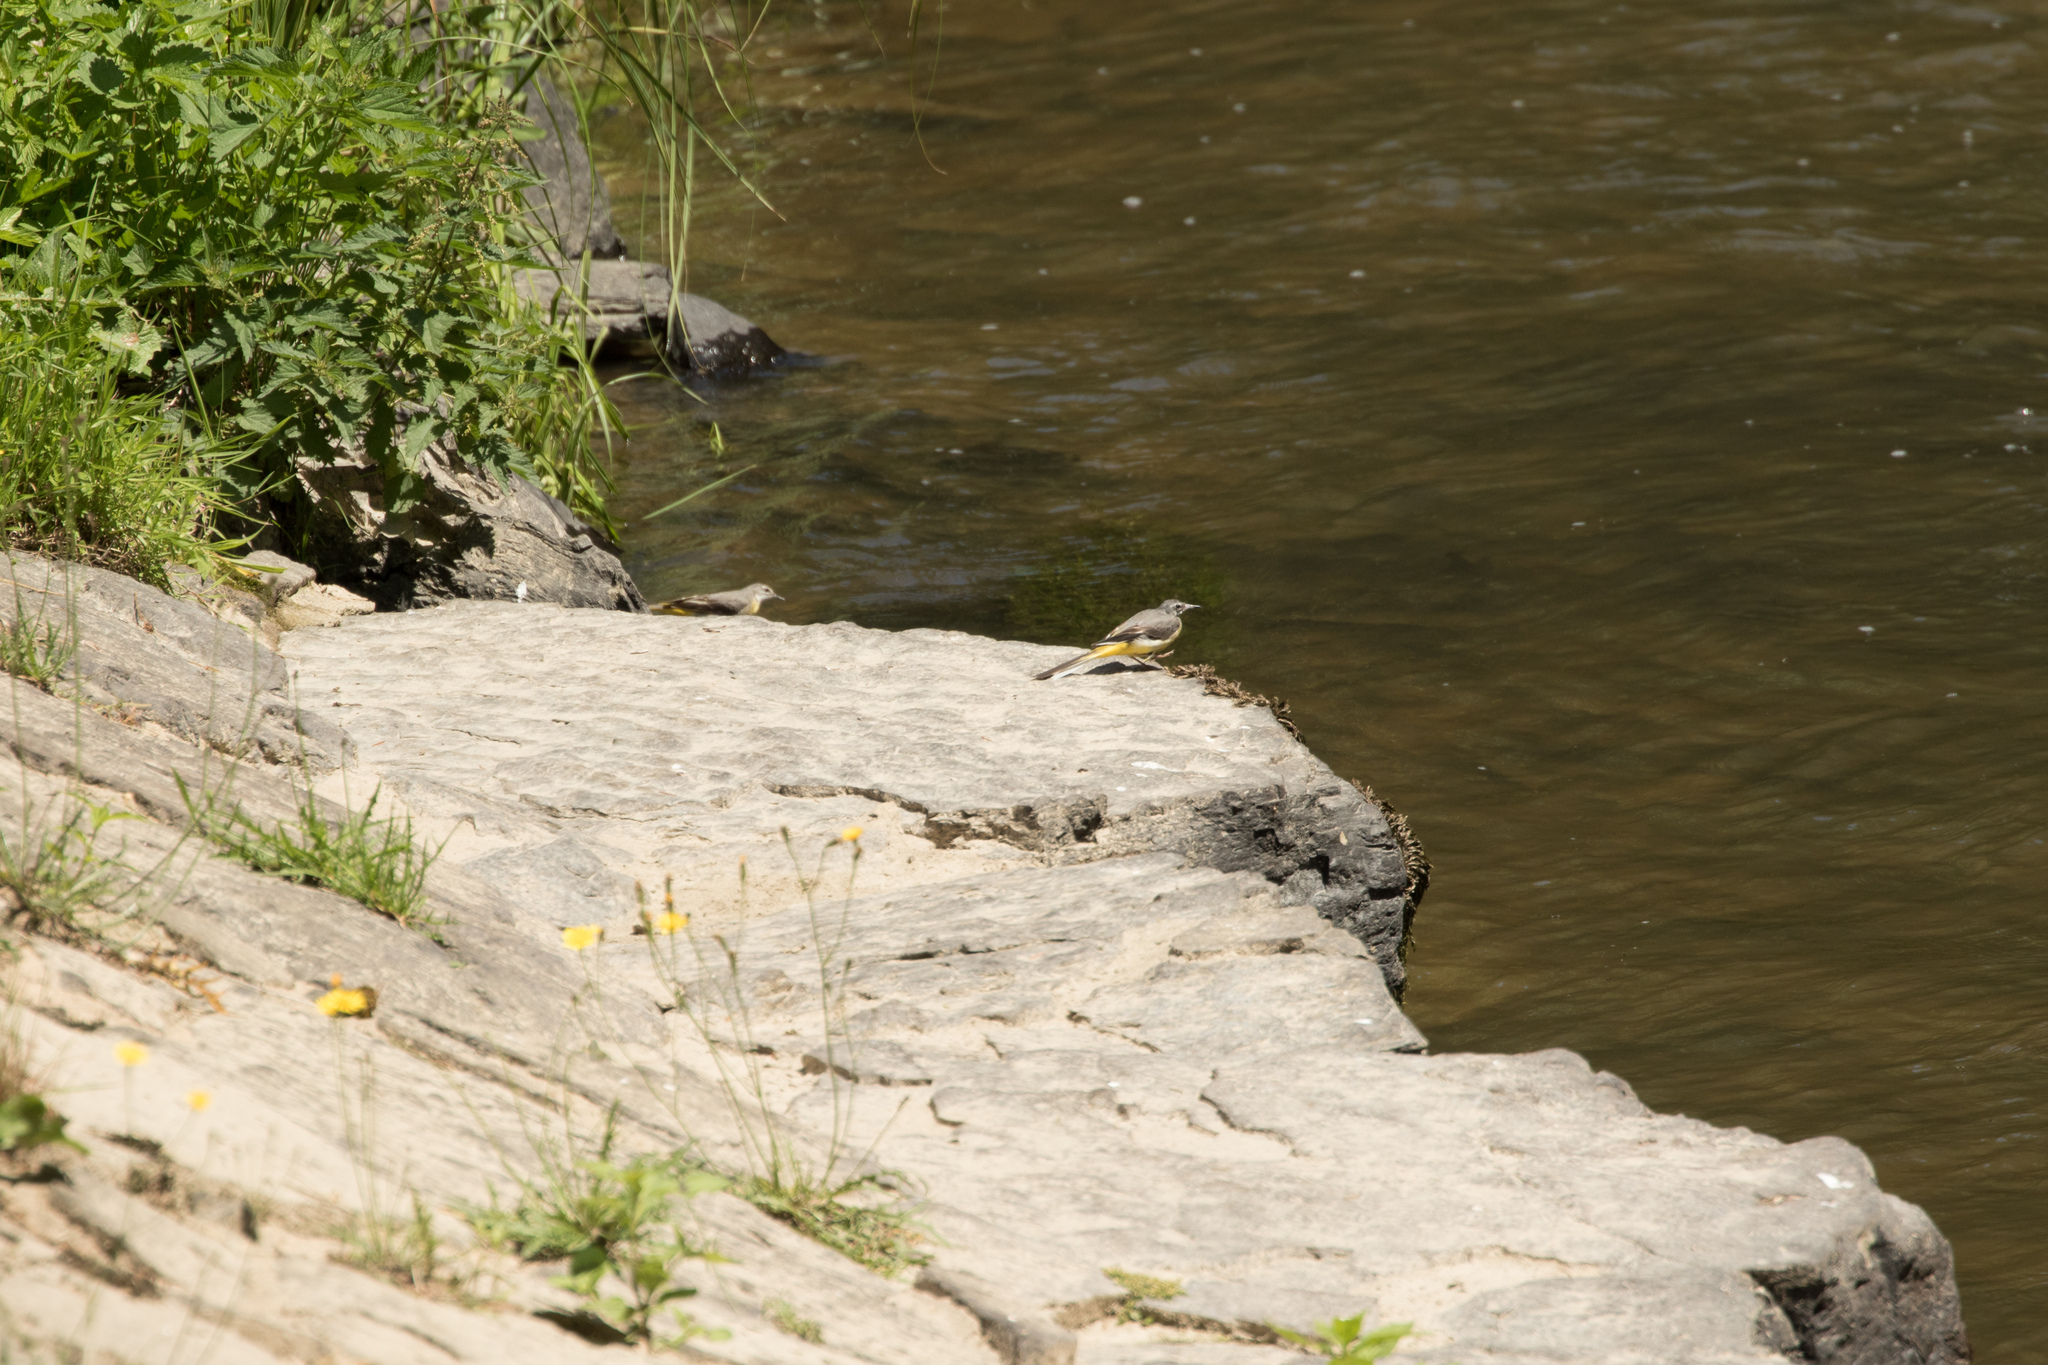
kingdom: Animalia
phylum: Chordata
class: Aves
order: Passeriformes
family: Motacillidae
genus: Motacilla
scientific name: Motacilla cinerea
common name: Grey wagtail
